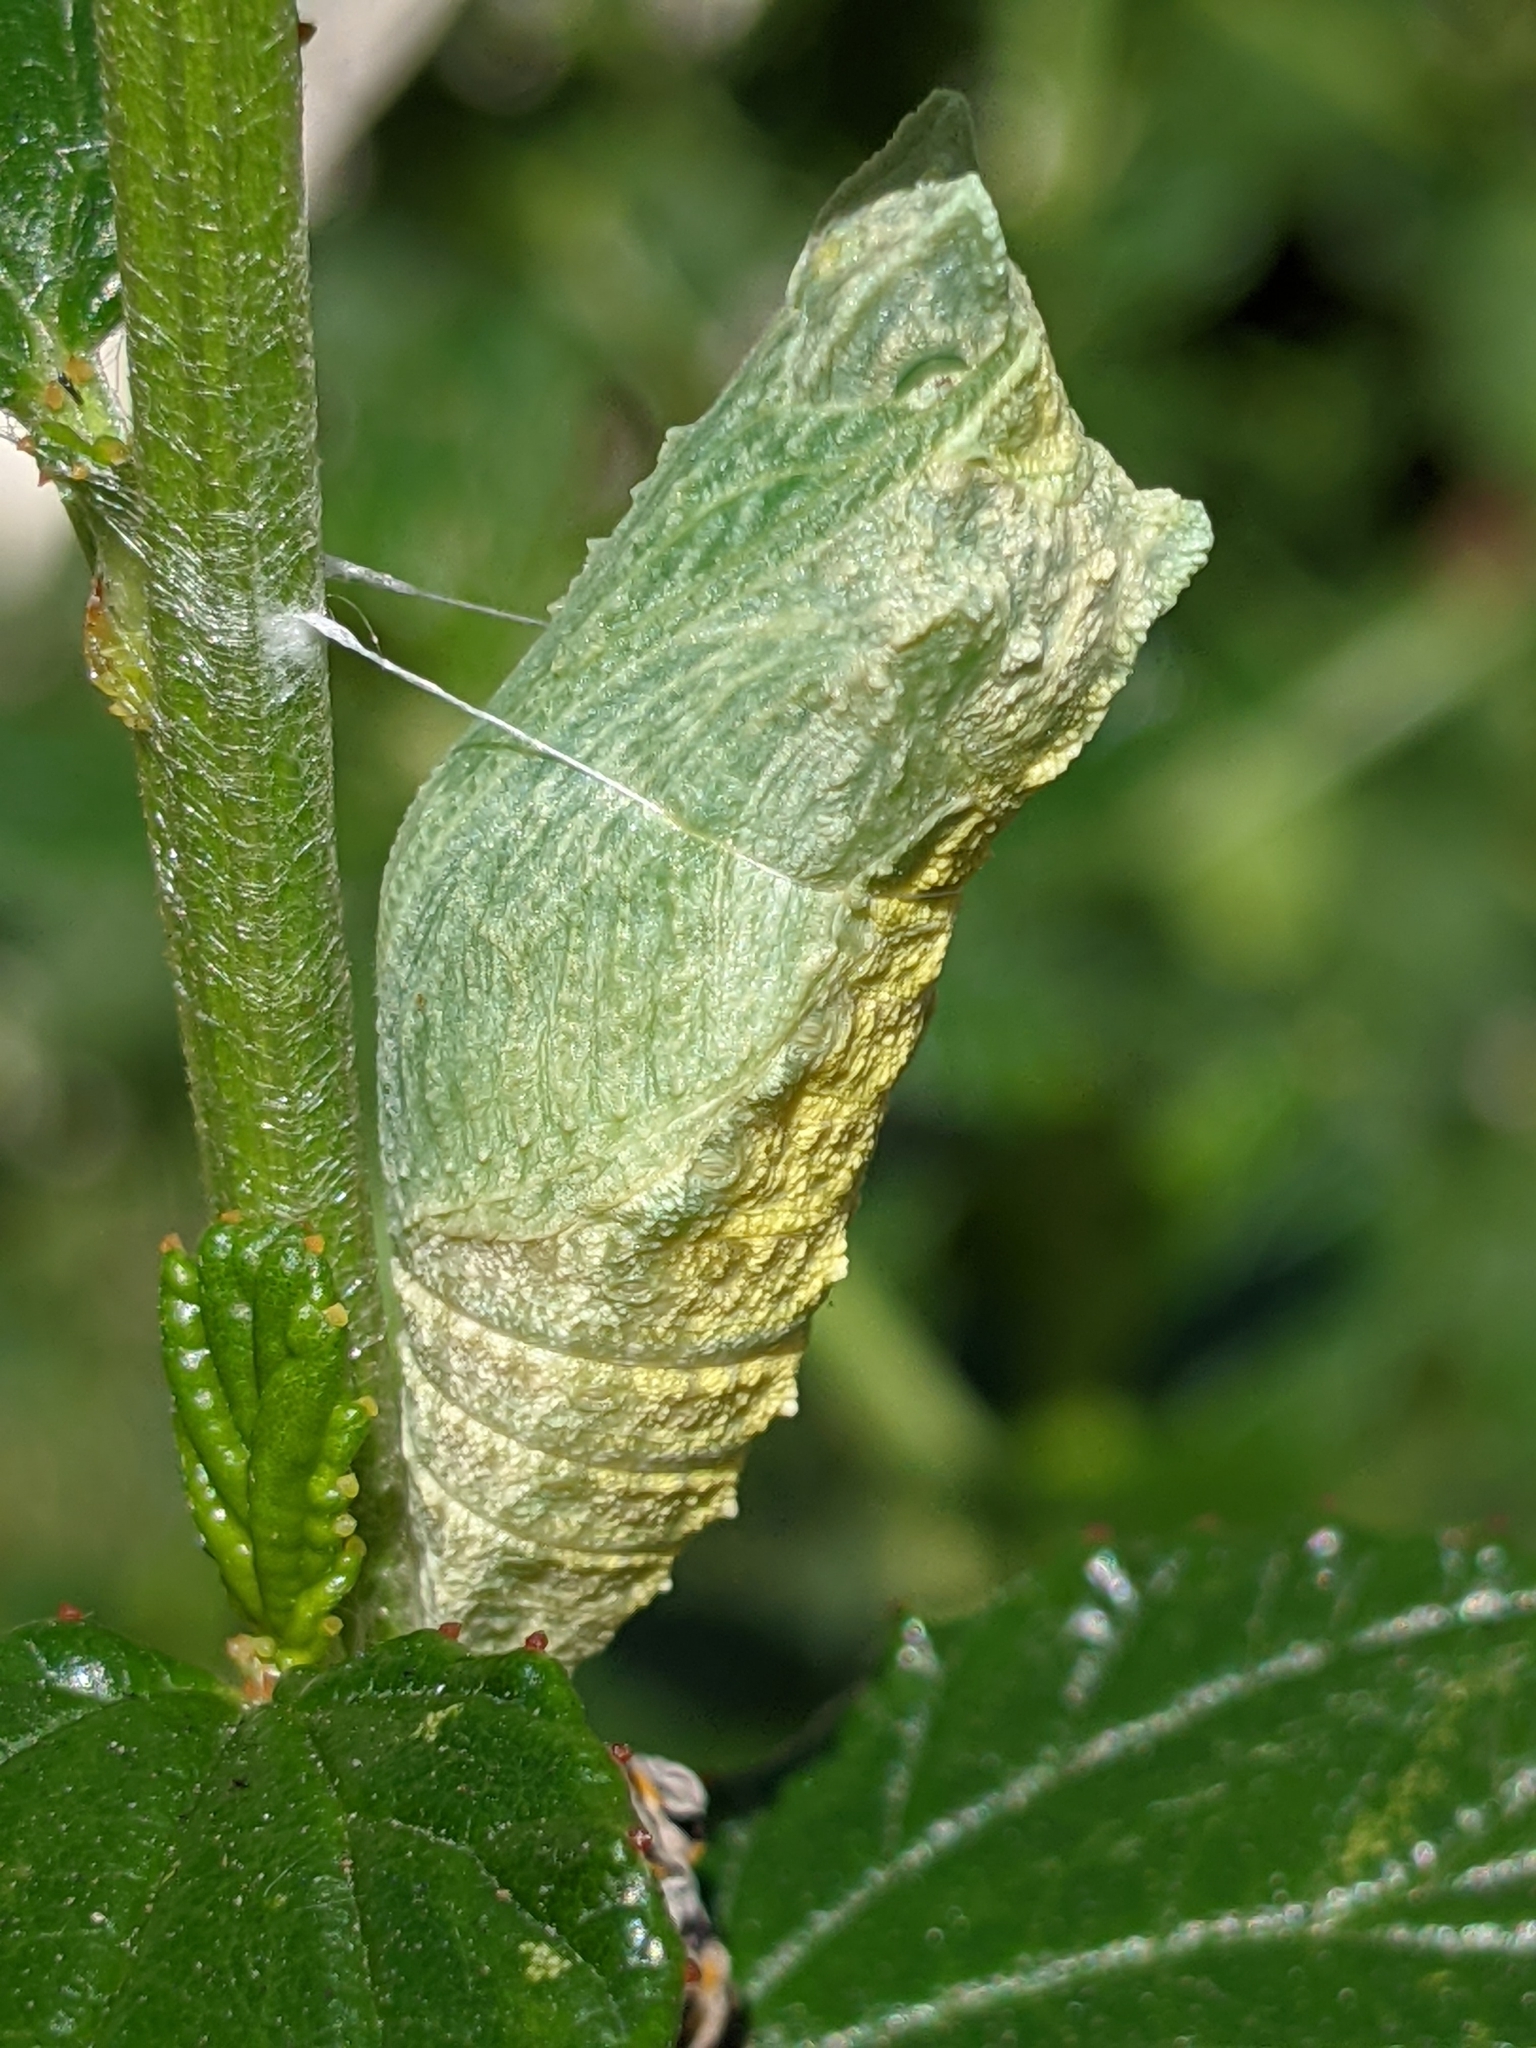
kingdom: Animalia
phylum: Arthropoda
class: Insecta
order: Lepidoptera
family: Papilionidae
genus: Papilio
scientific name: Papilio zelicaon
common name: Anise swallowtail
